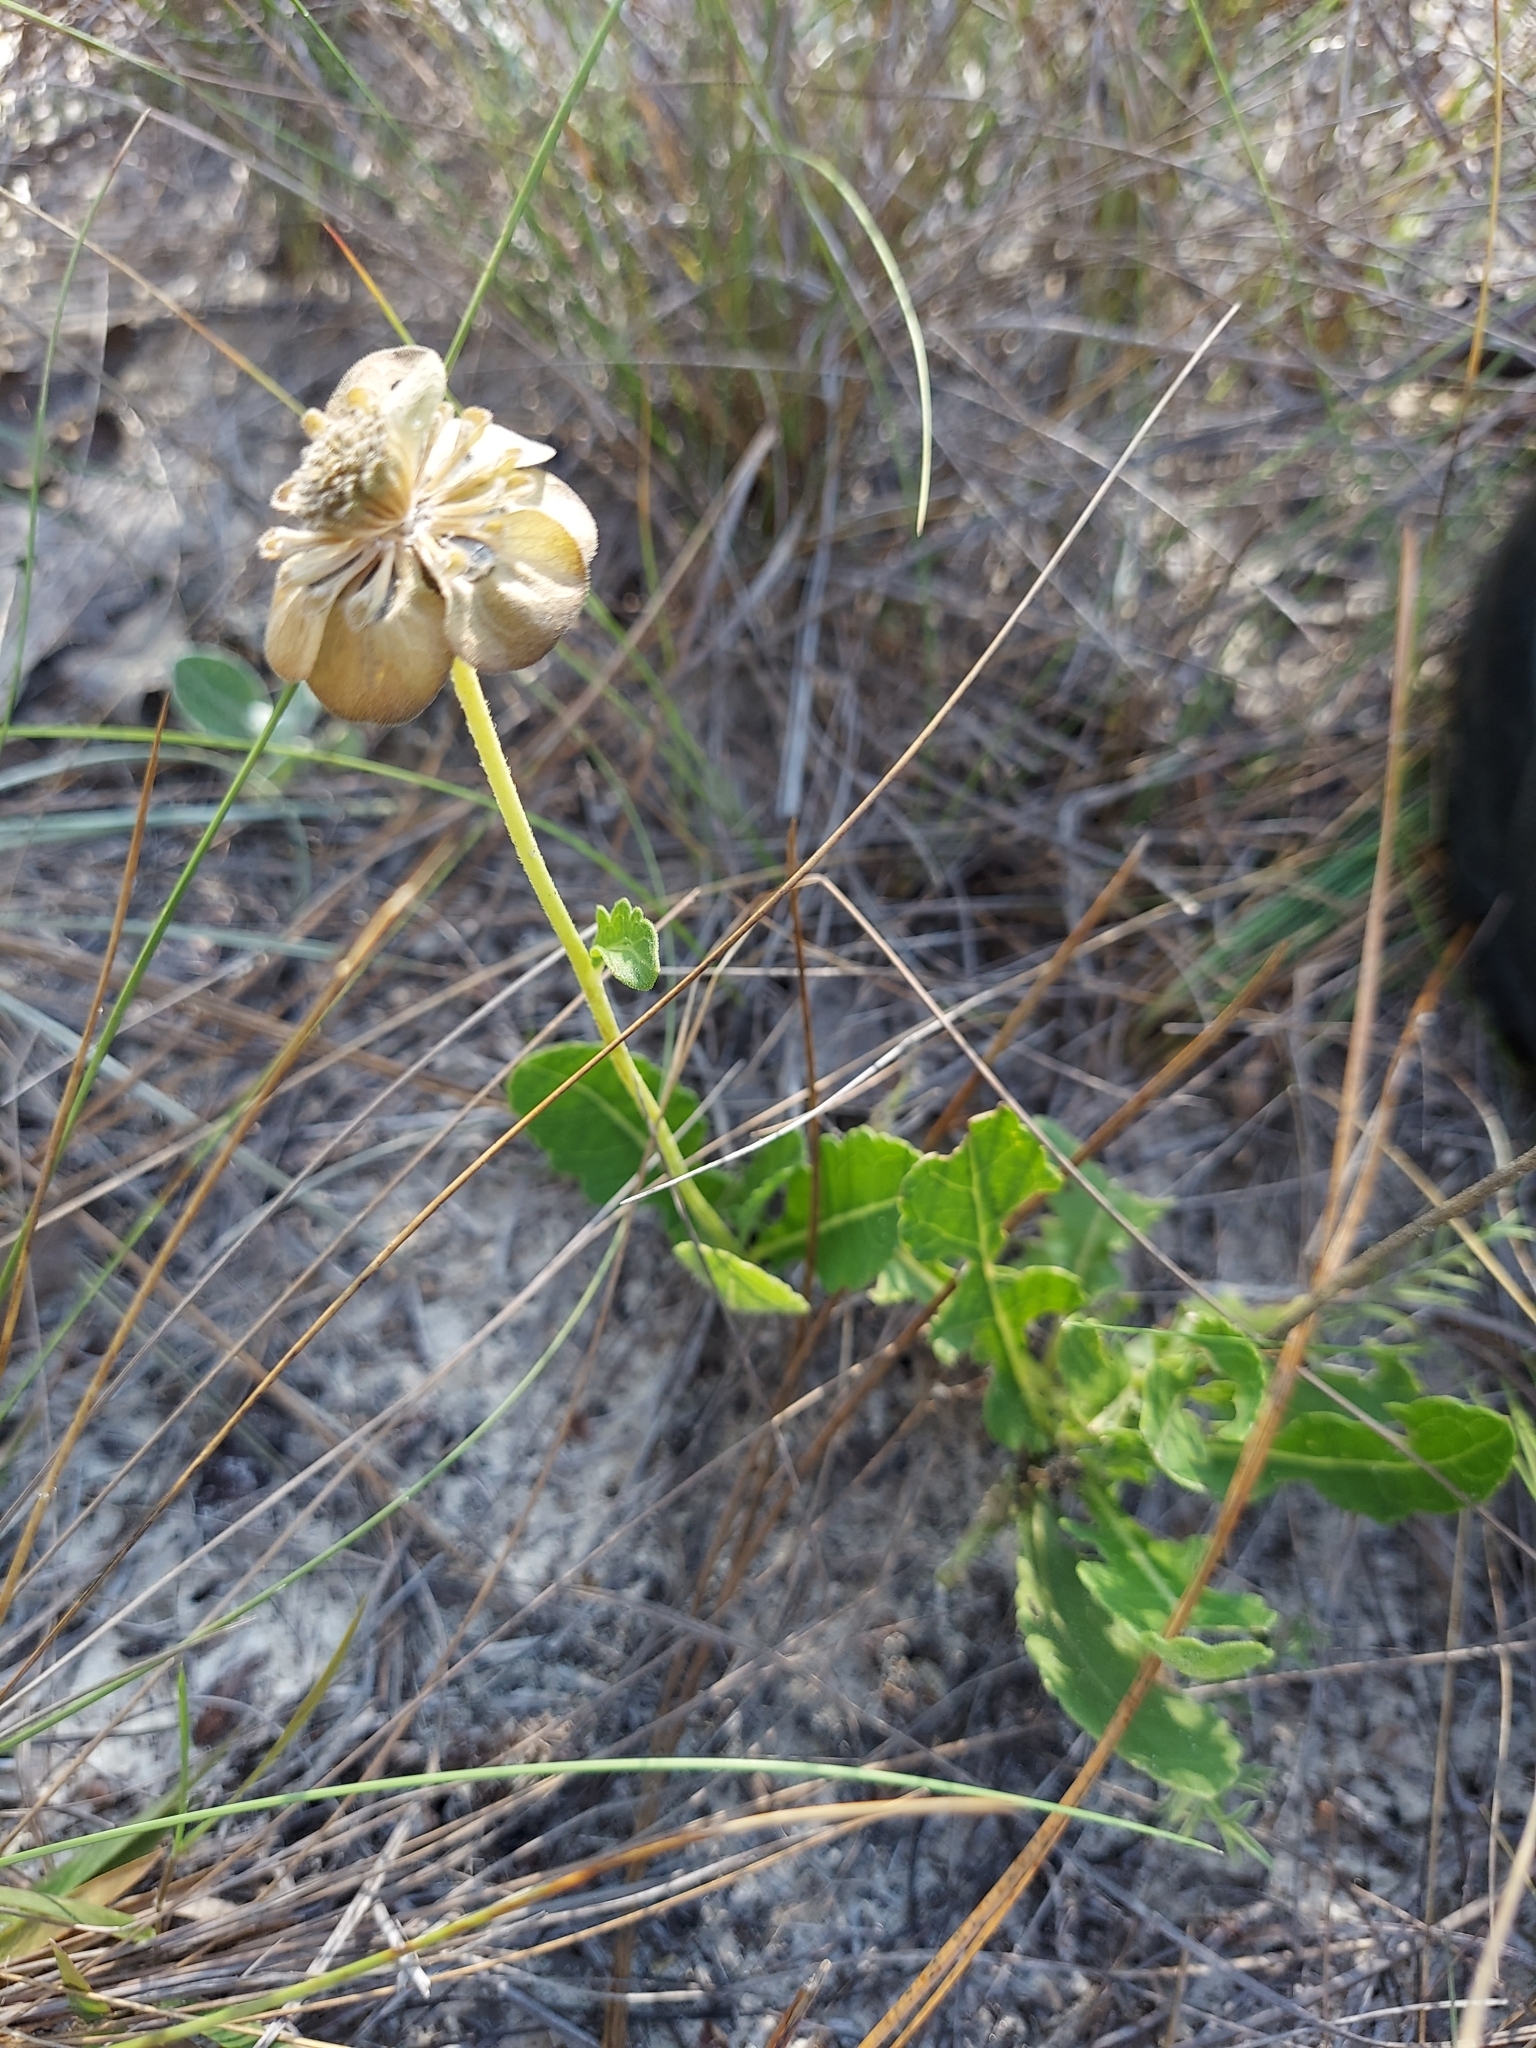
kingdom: Plantae
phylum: Tracheophyta
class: Magnoliopsida
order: Asterales
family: Asteraceae
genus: Berlandiera
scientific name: Berlandiera subacaulis
